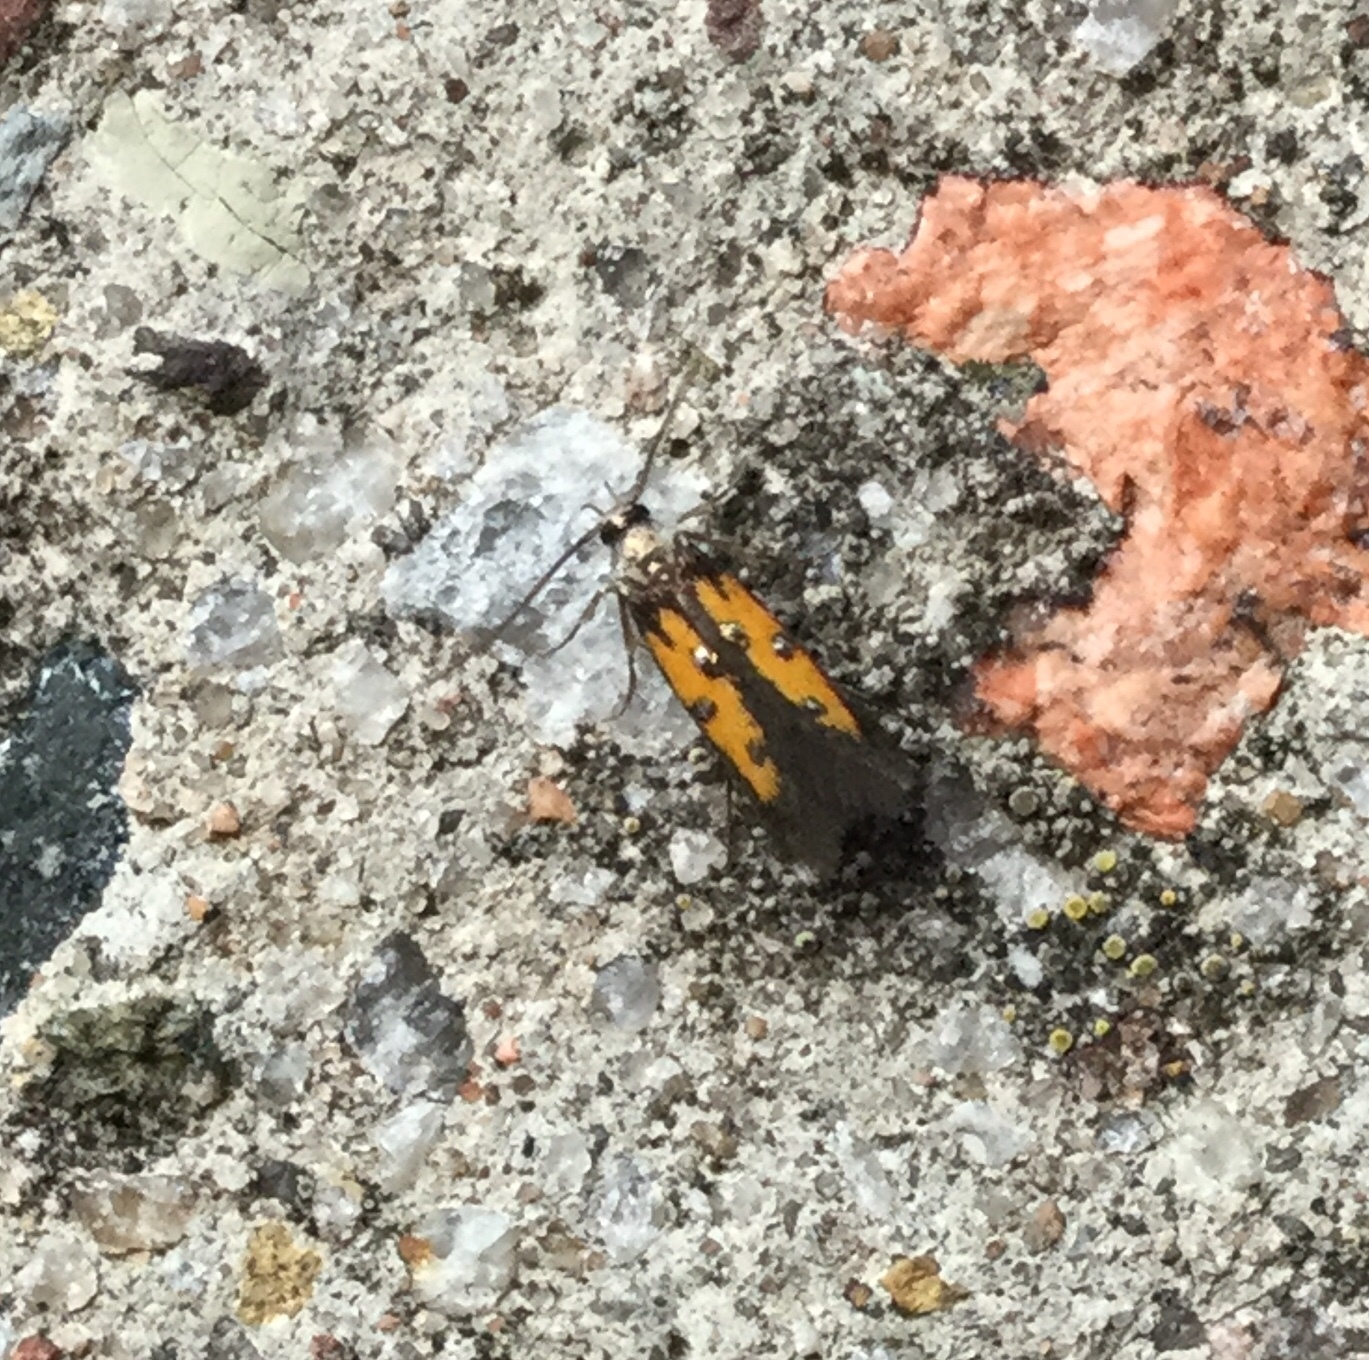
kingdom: Animalia
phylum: Arthropoda
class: Insecta
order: Lepidoptera
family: Elachistidae
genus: Chrysoclista
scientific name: Chrysoclista linneela
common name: Lime cosmet
